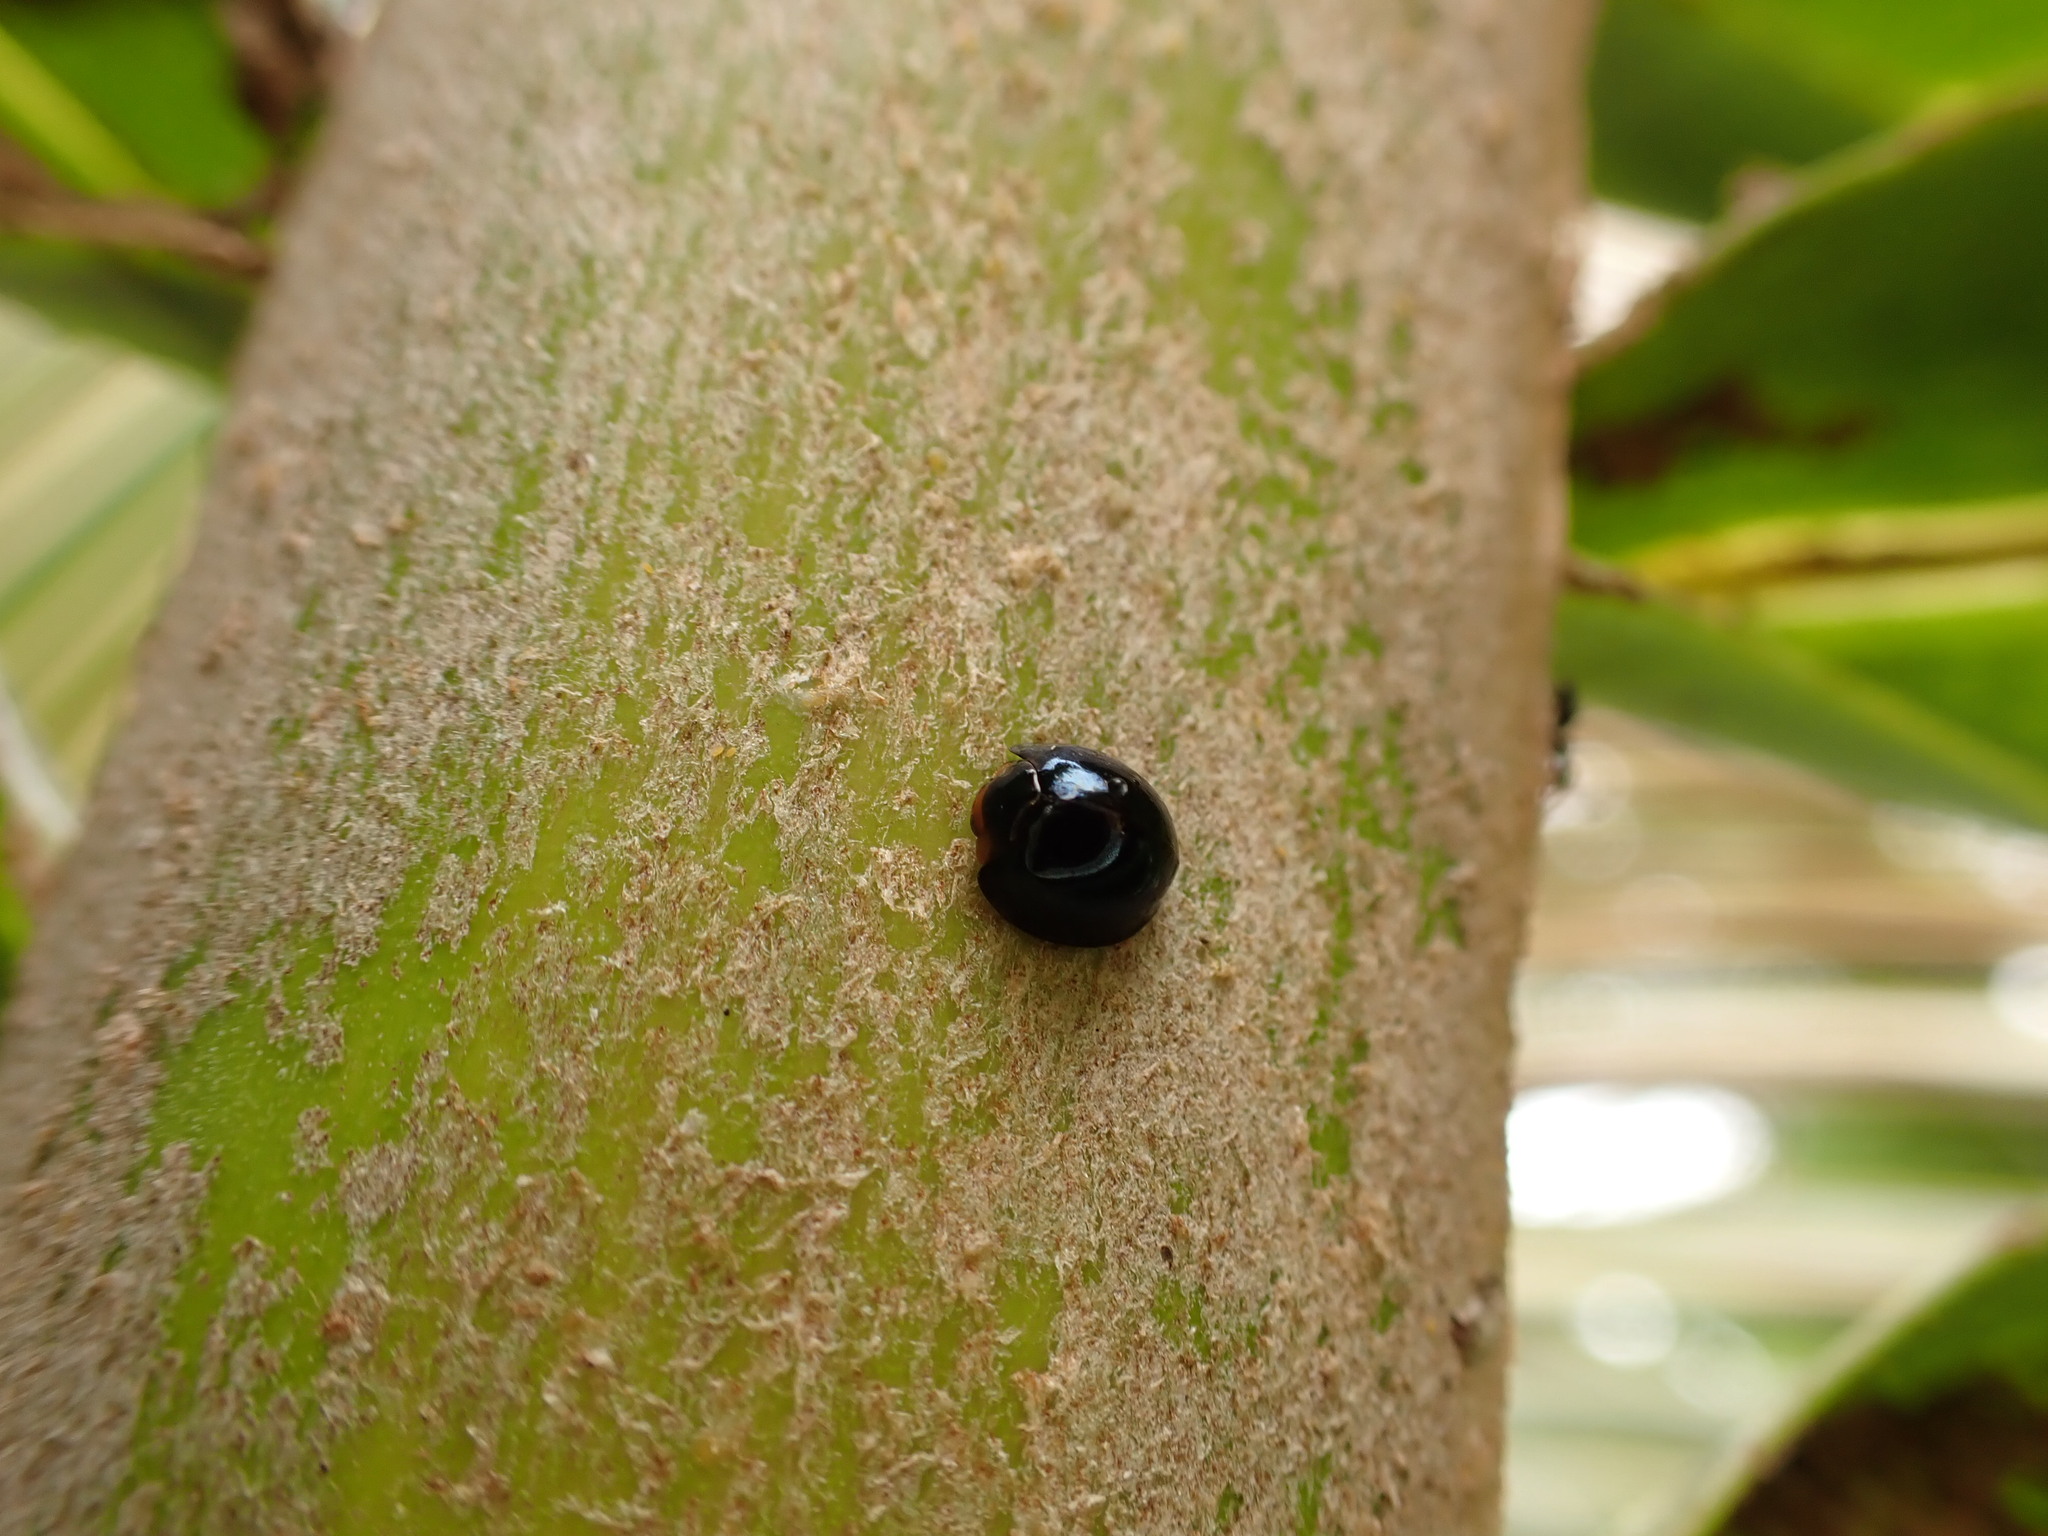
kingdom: Animalia
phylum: Arthropoda
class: Insecta
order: Coleoptera
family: Coccinellidae
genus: Chilocorus
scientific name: Chilocorus nigritus
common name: Ladybird beetle
